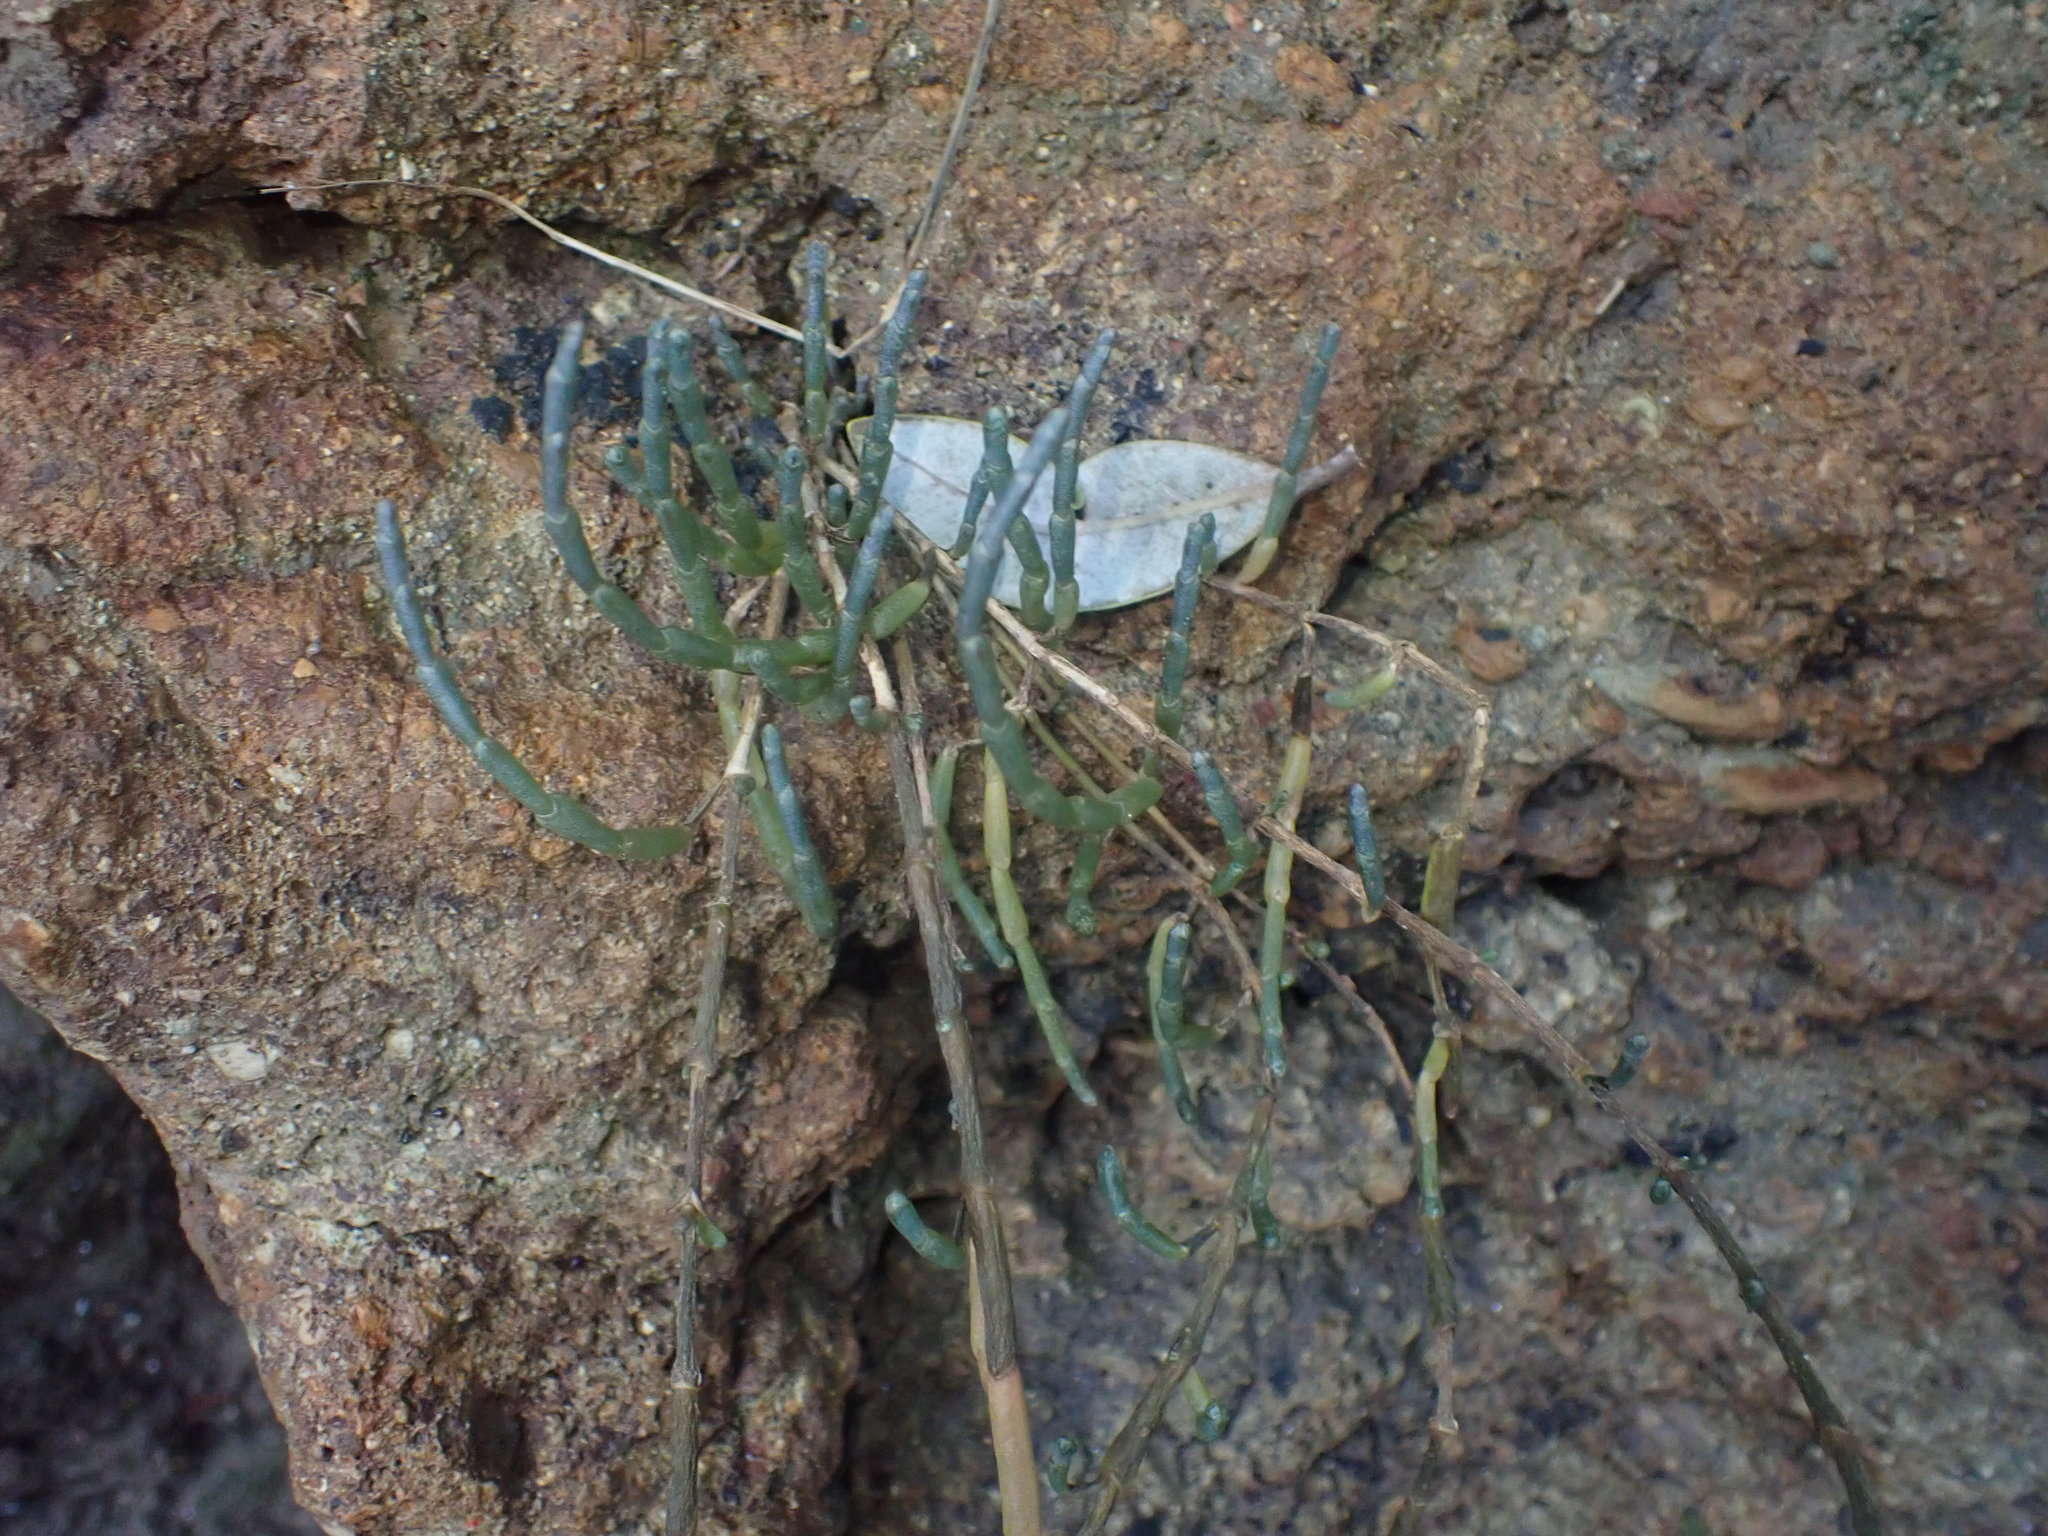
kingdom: Plantae
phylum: Tracheophyta
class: Magnoliopsida
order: Caryophyllales
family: Amaranthaceae
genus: Salicornia
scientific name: Salicornia quinqueflora
